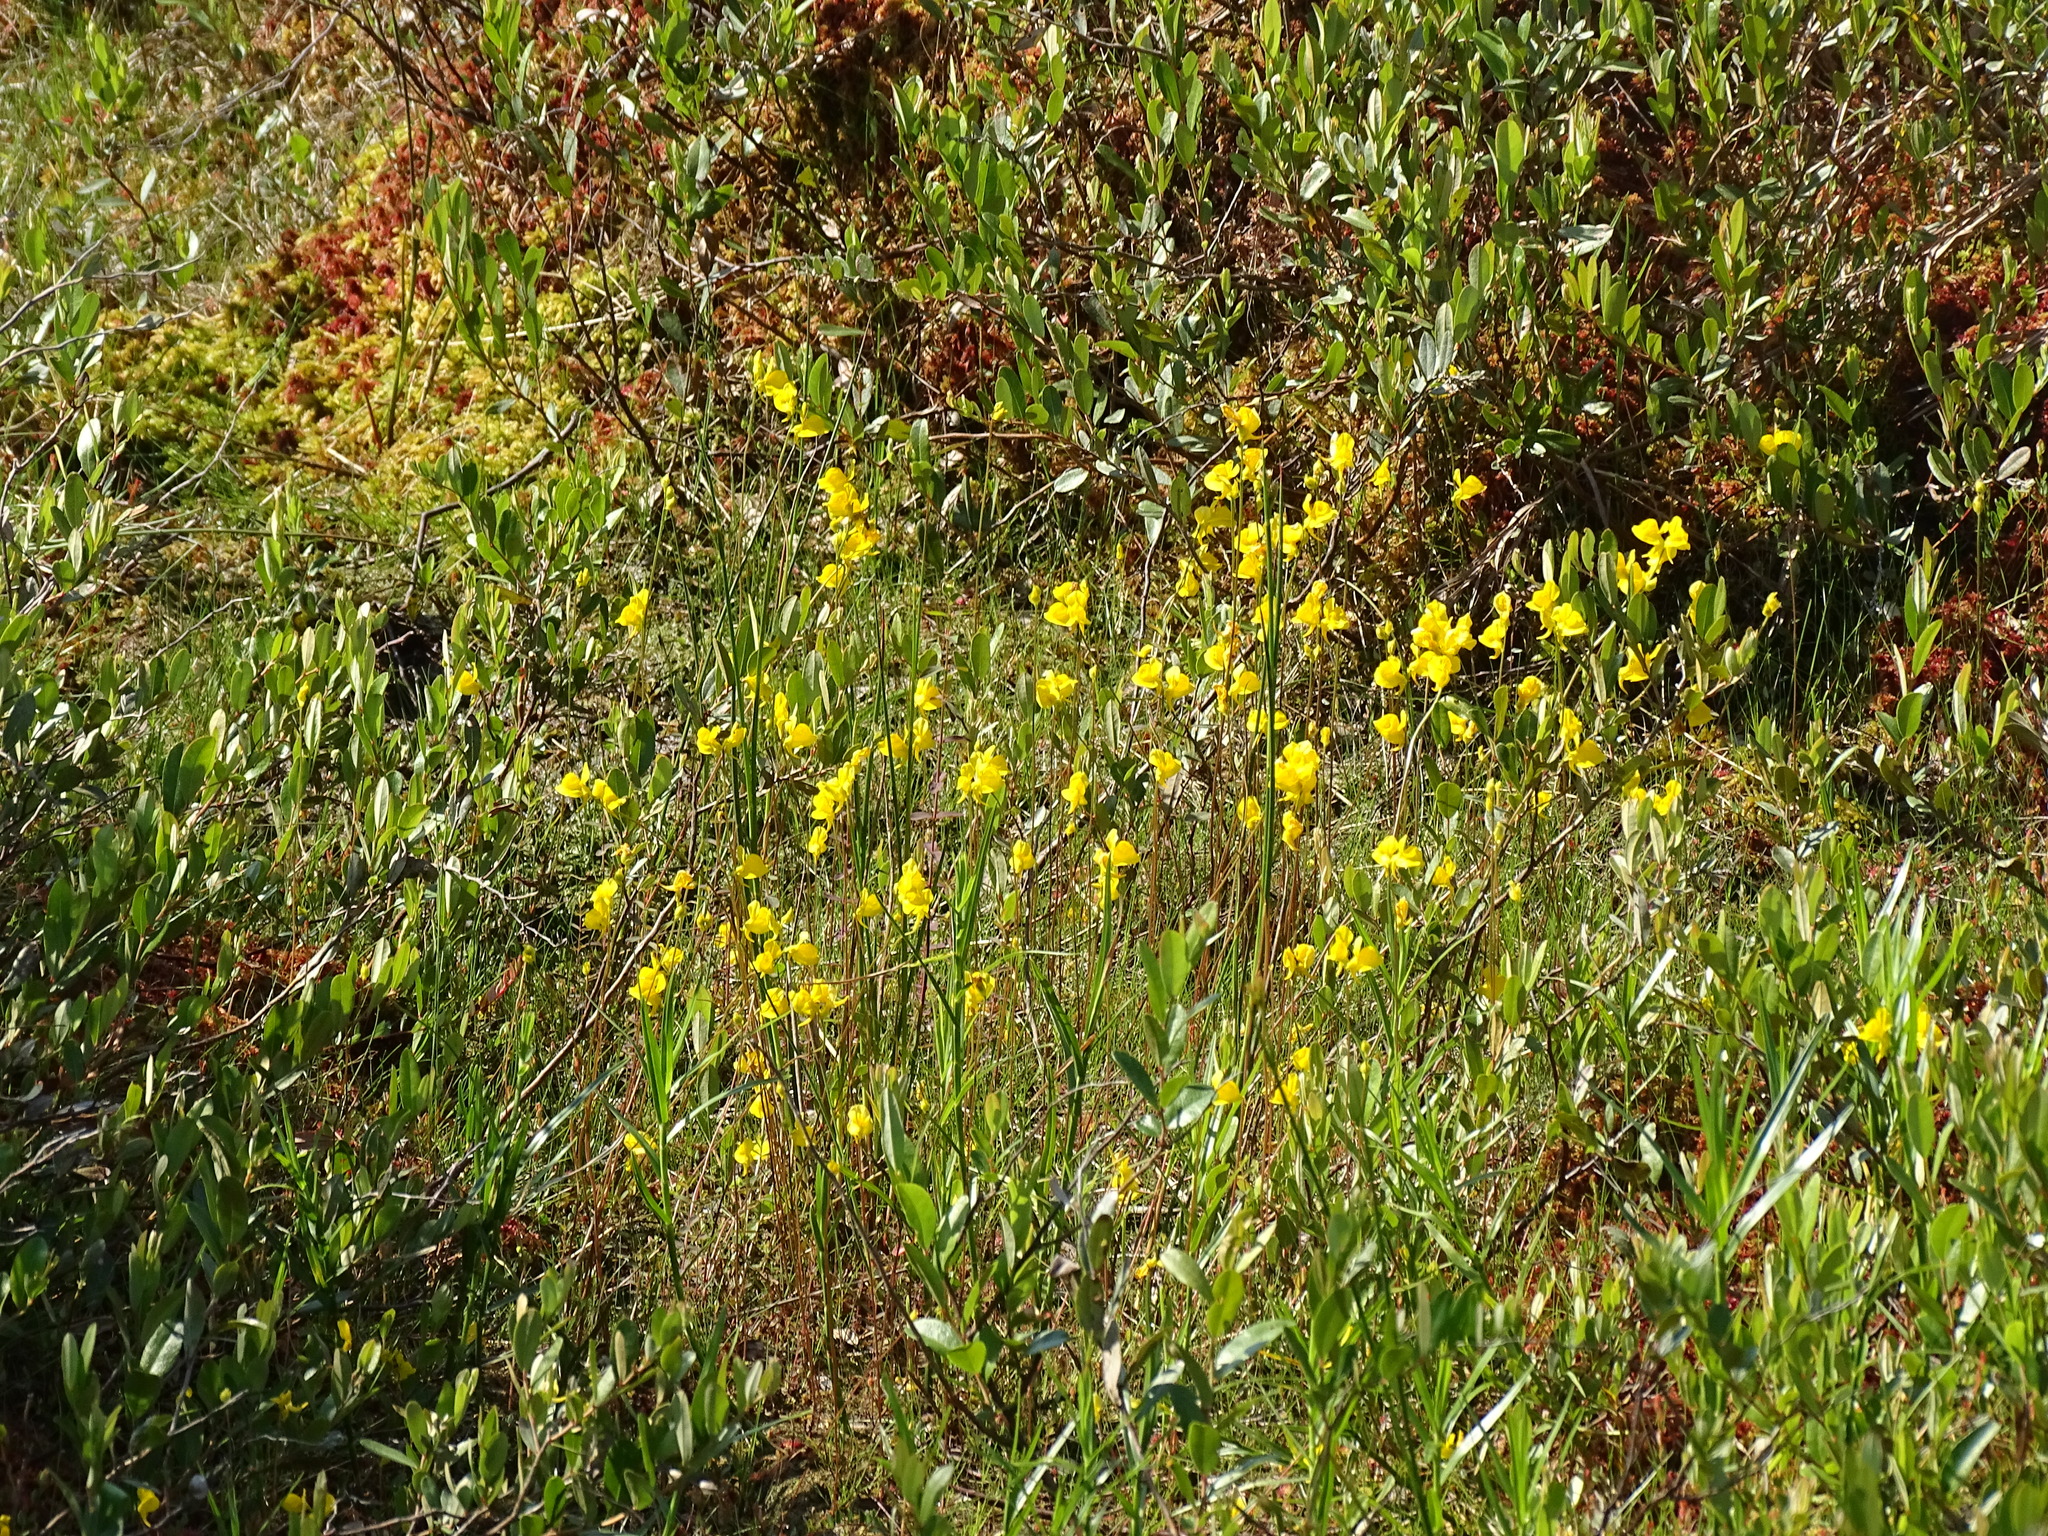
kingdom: Plantae
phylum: Tracheophyta
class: Magnoliopsida
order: Lamiales
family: Lentibulariaceae
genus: Utricularia
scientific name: Utricularia cornuta
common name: Horned bladderwort
